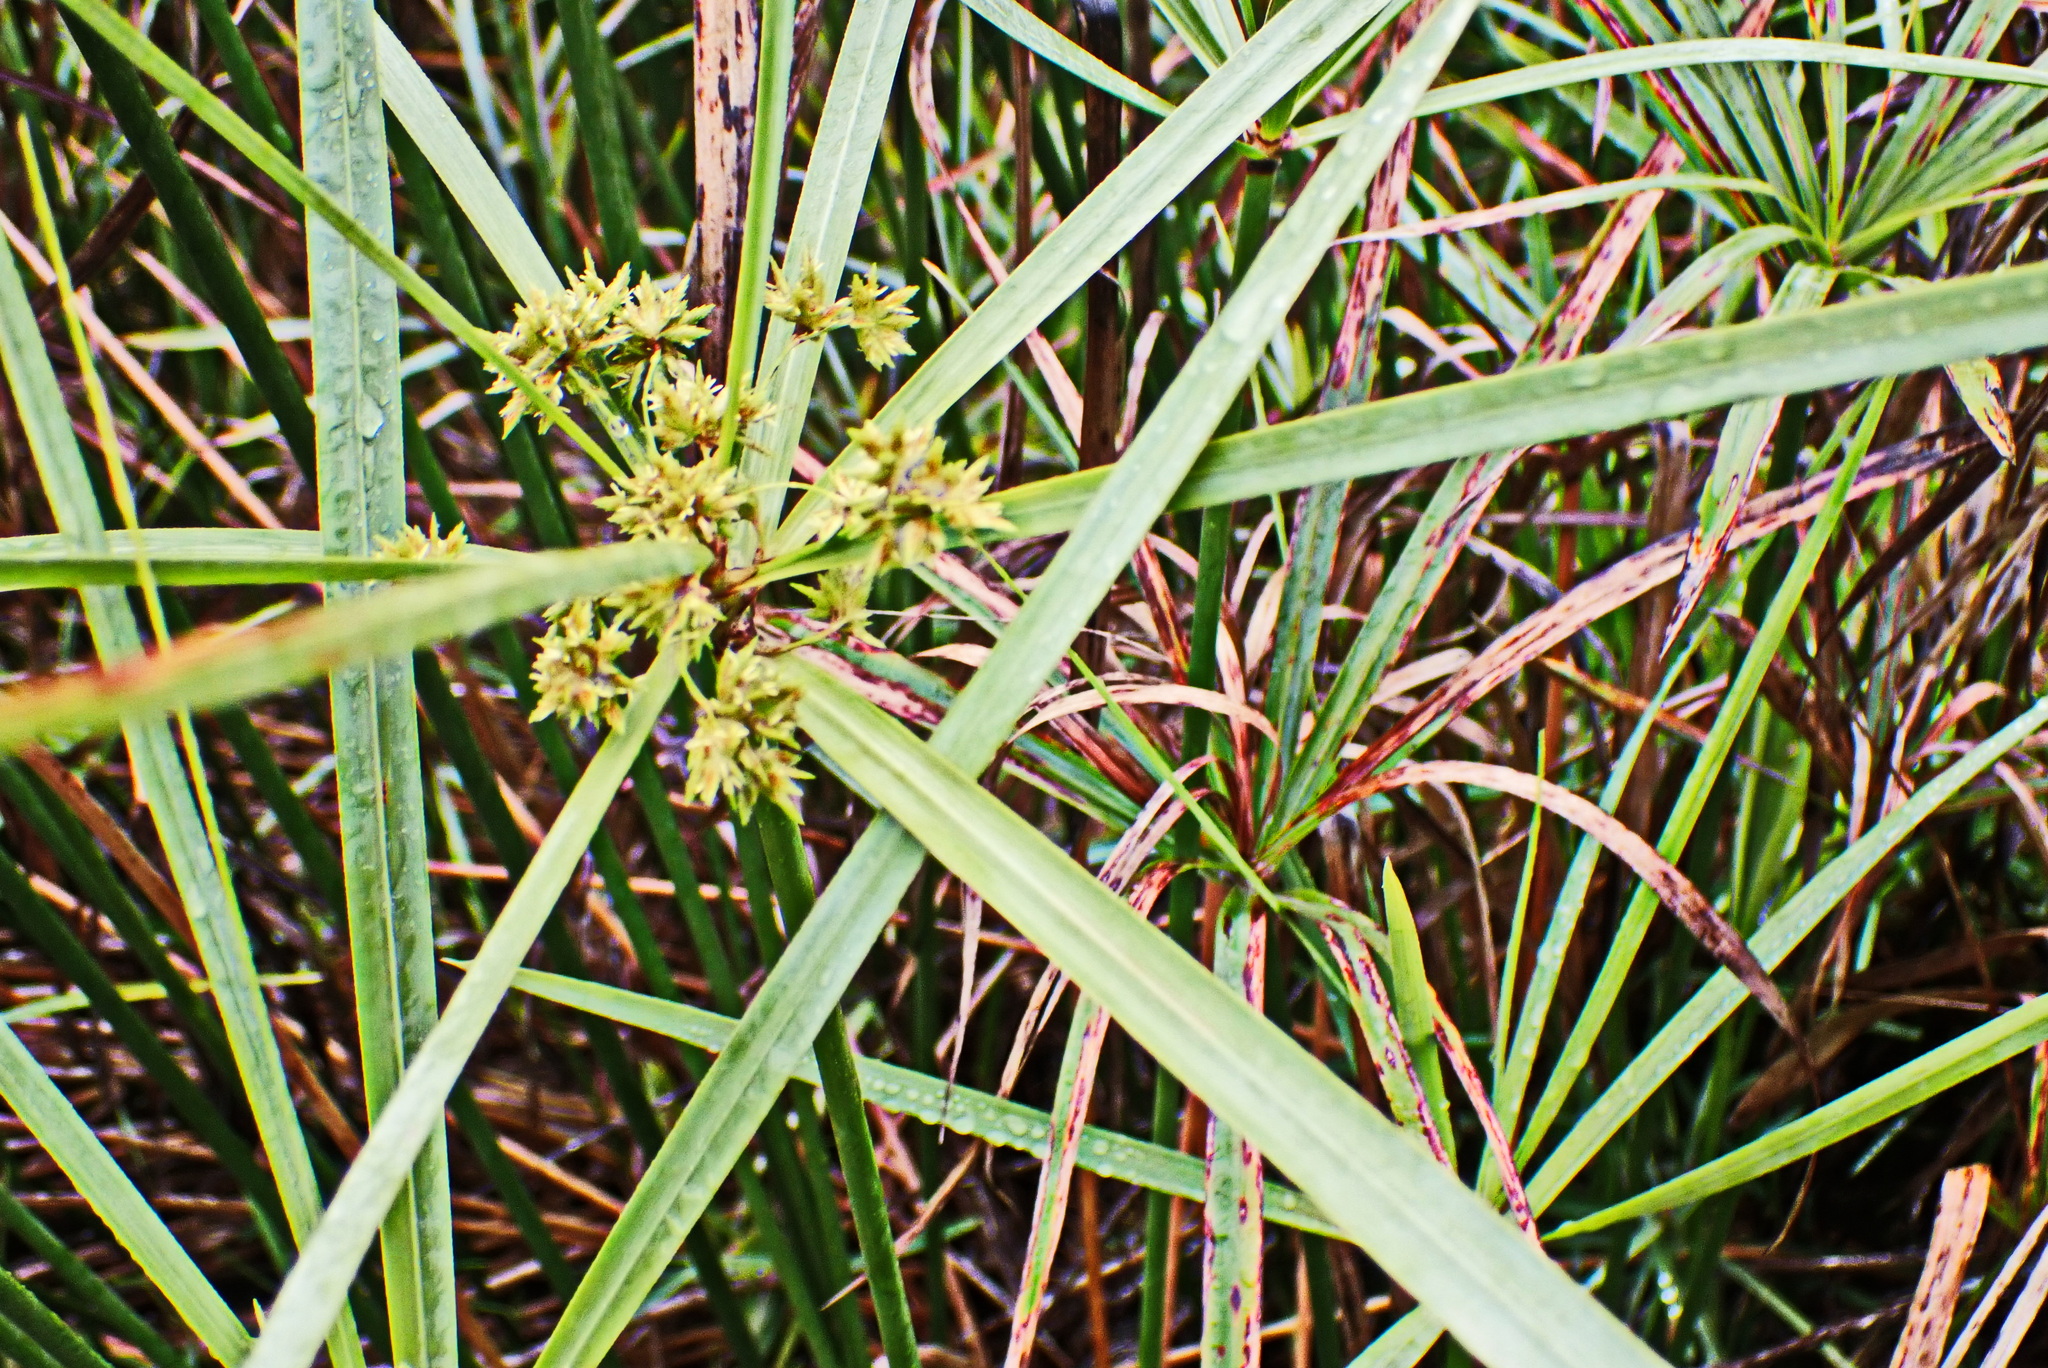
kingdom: Plantae
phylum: Tracheophyta
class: Liliopsida
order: Poales
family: Cyperaceae
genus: Cyperus
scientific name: Cyperus textilis
